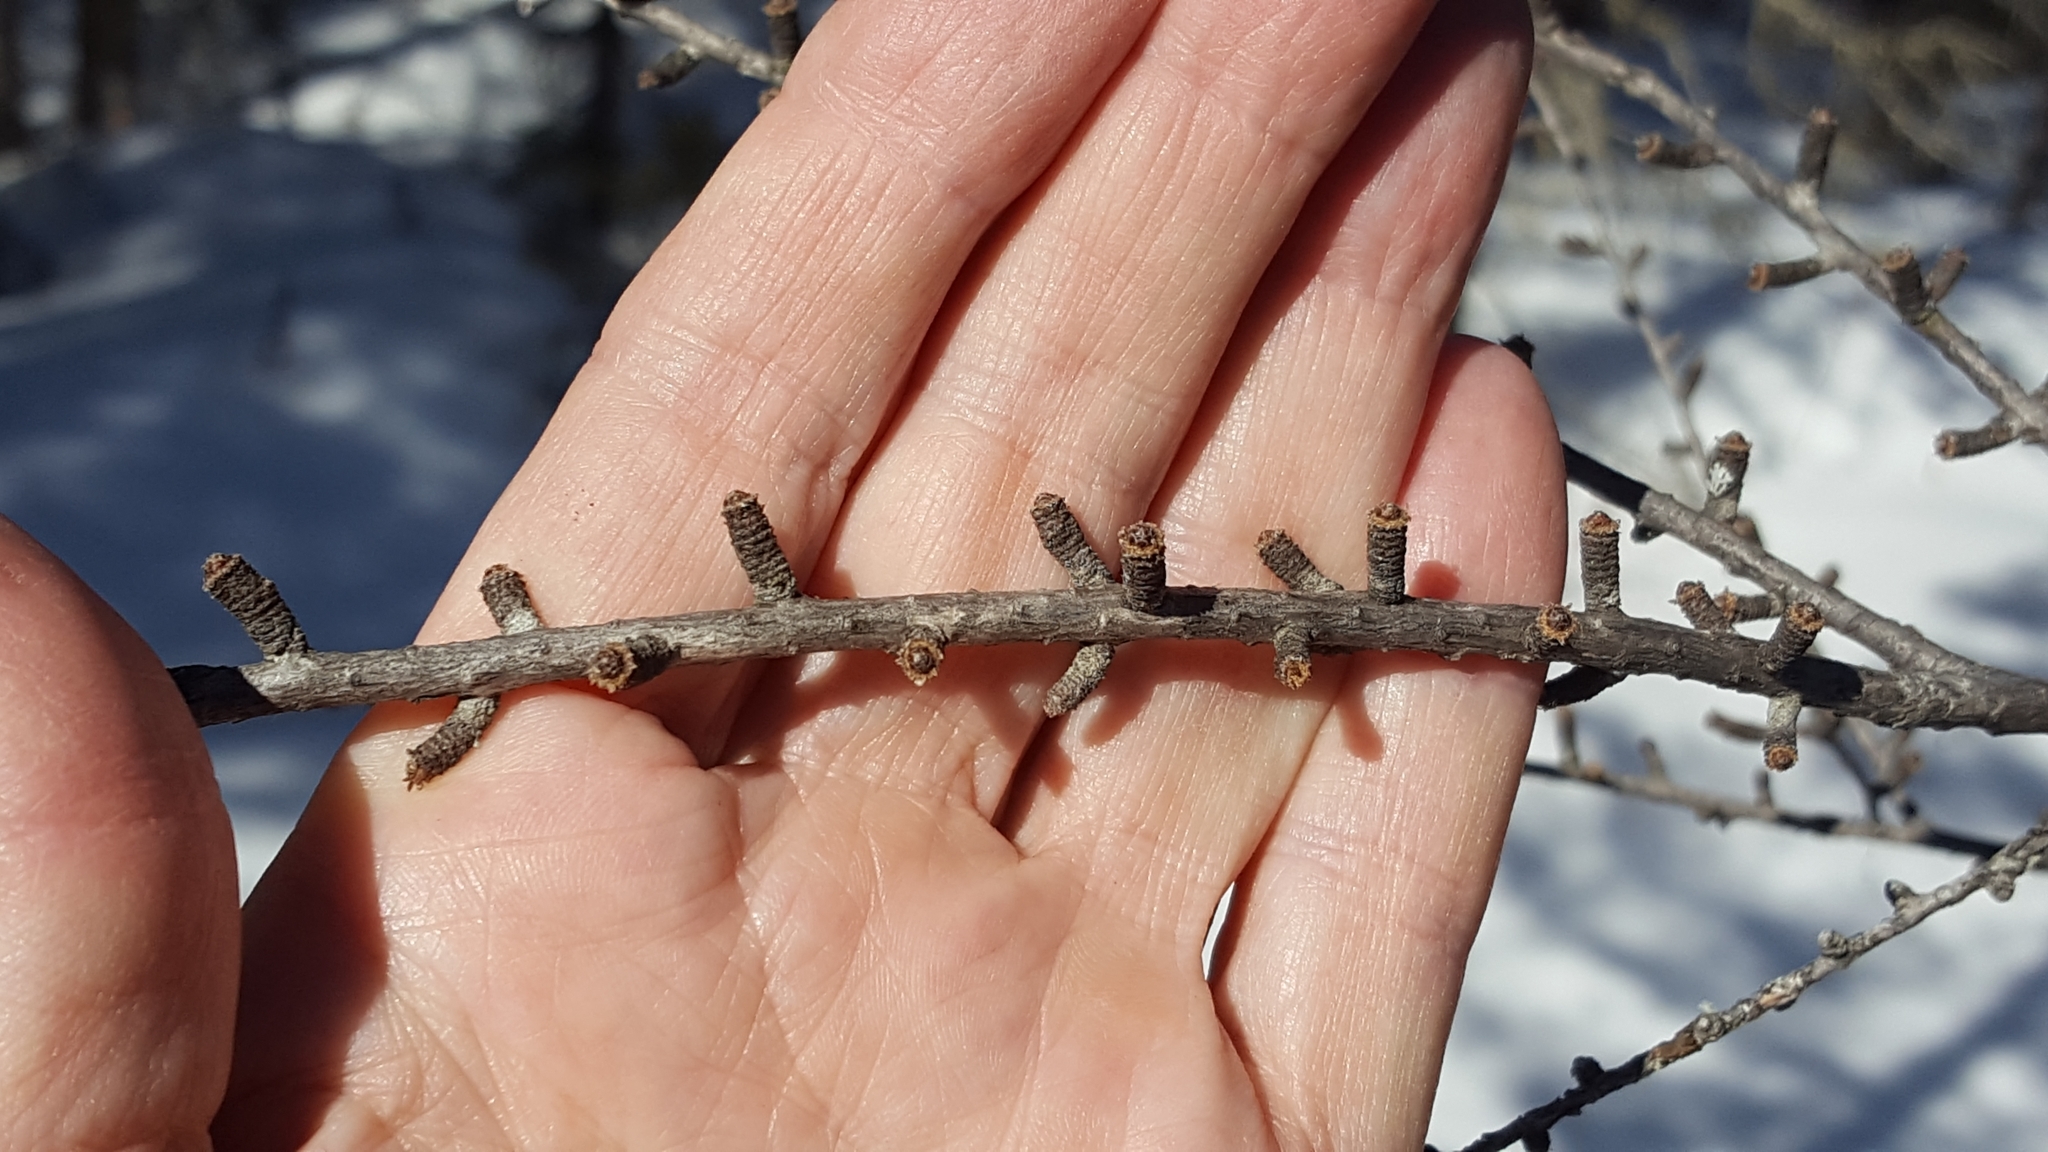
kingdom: Plantae
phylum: Tracheophyta
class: Pinopsida
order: Pinales
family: Pinaceae
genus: Larix
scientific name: Larix laricina
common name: American larch
